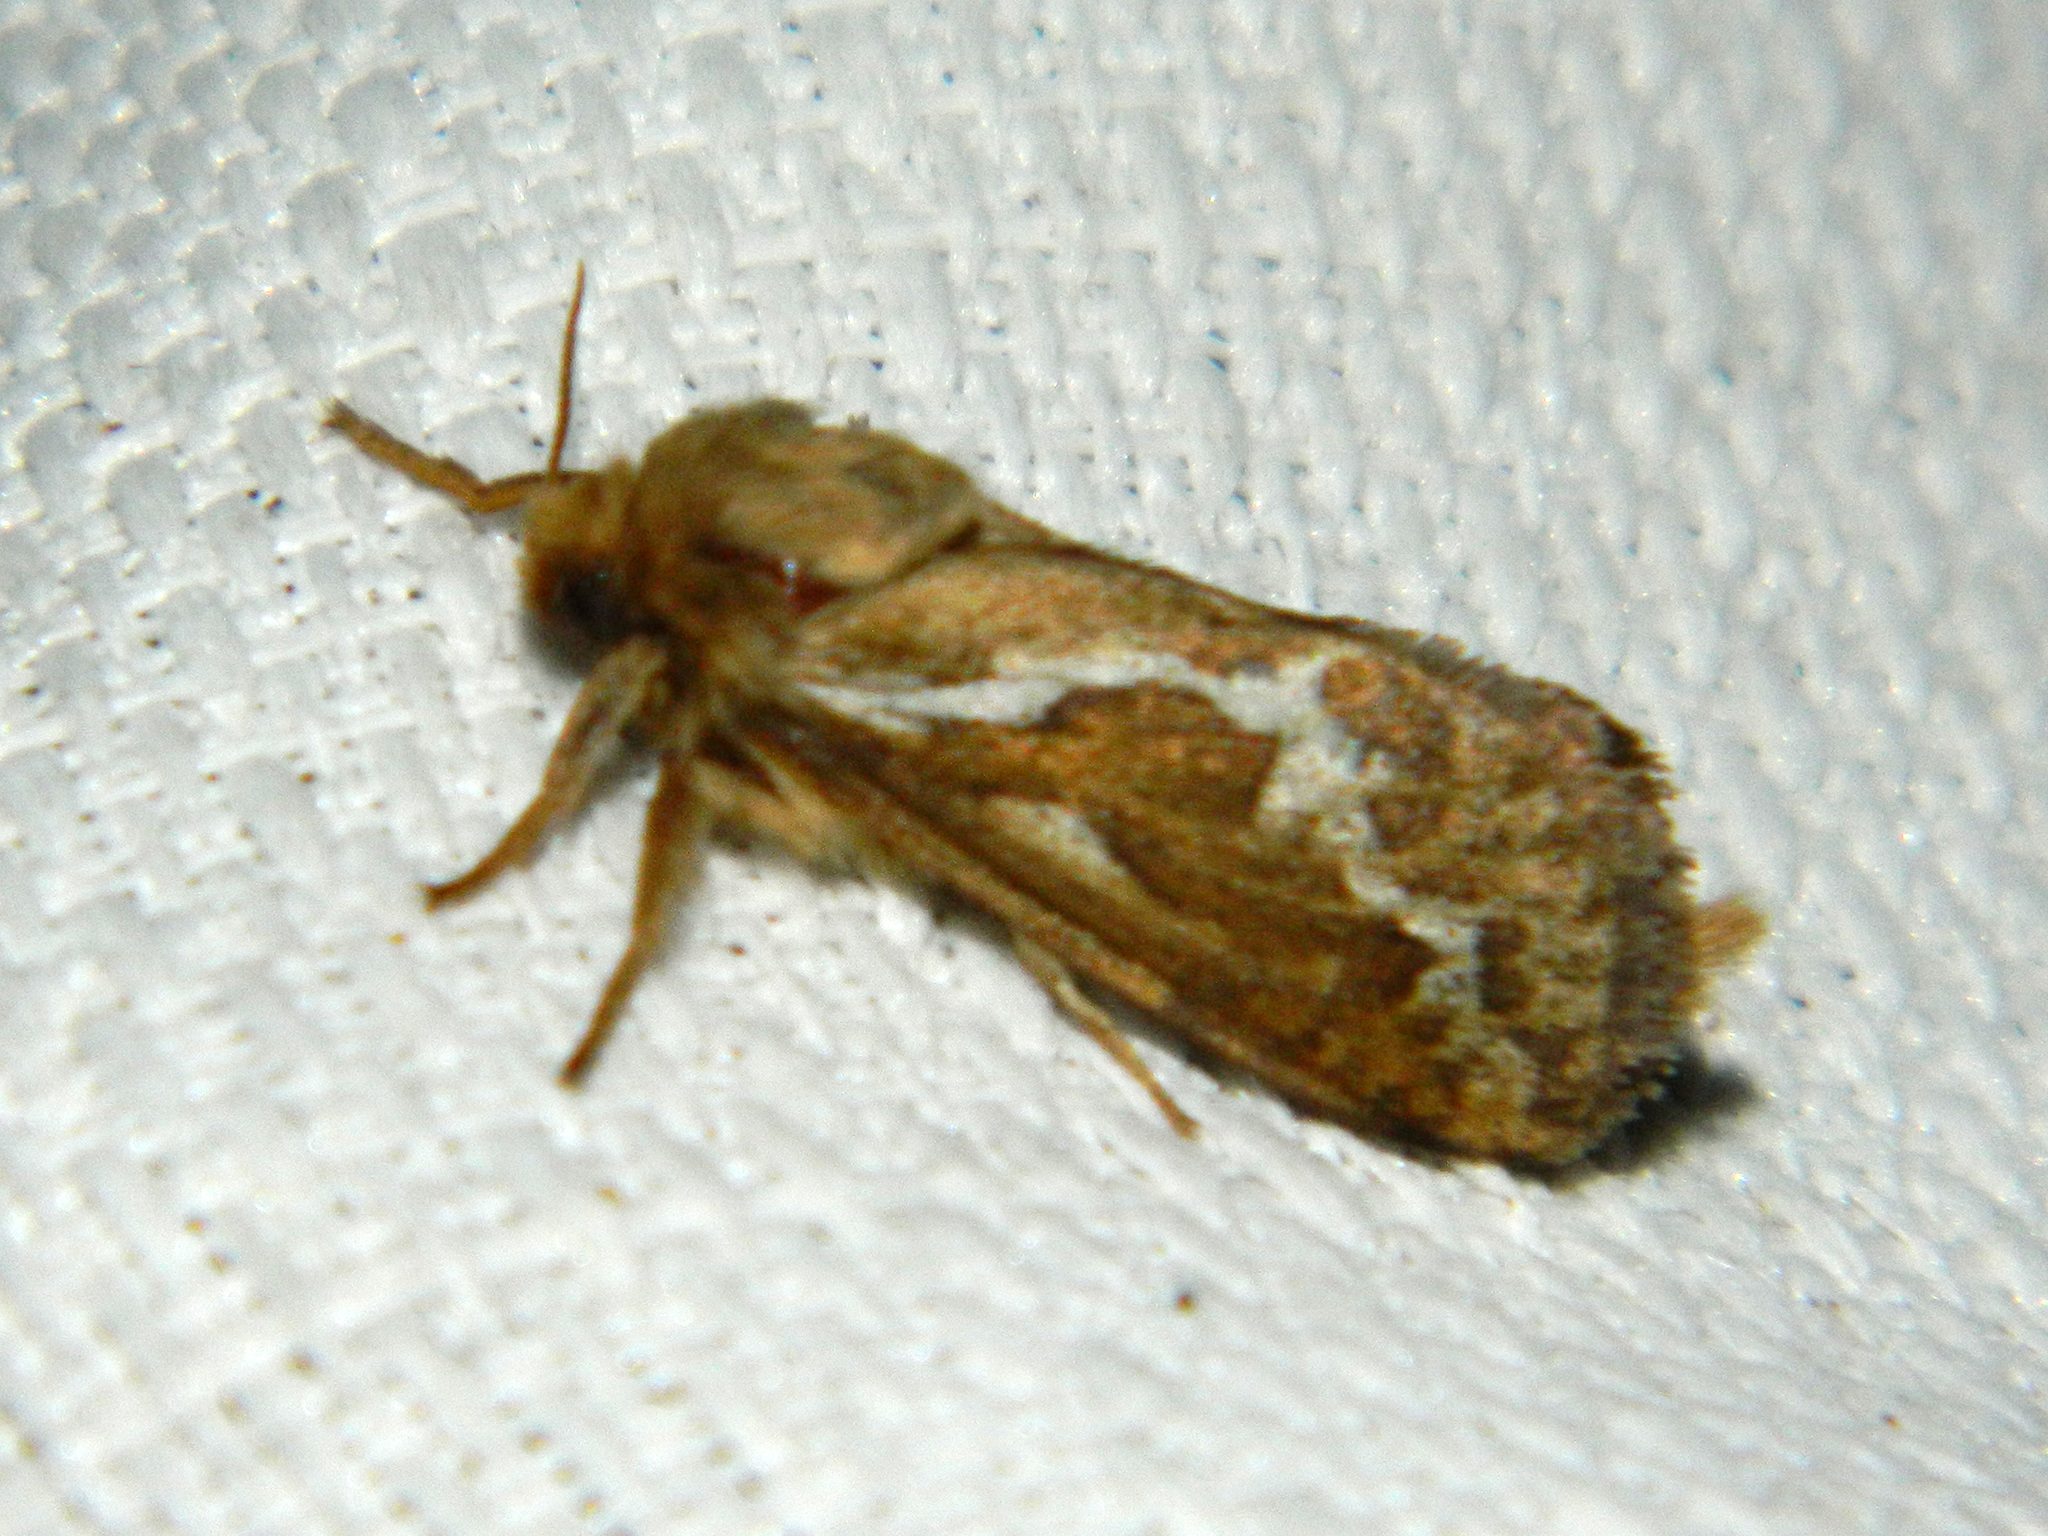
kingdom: Animalia
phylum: Arthropoda
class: Insecta
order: Lepidoptera
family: Hepialidae
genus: Korscheltellus
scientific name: Korscheltellus lupulina
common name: Common swift
